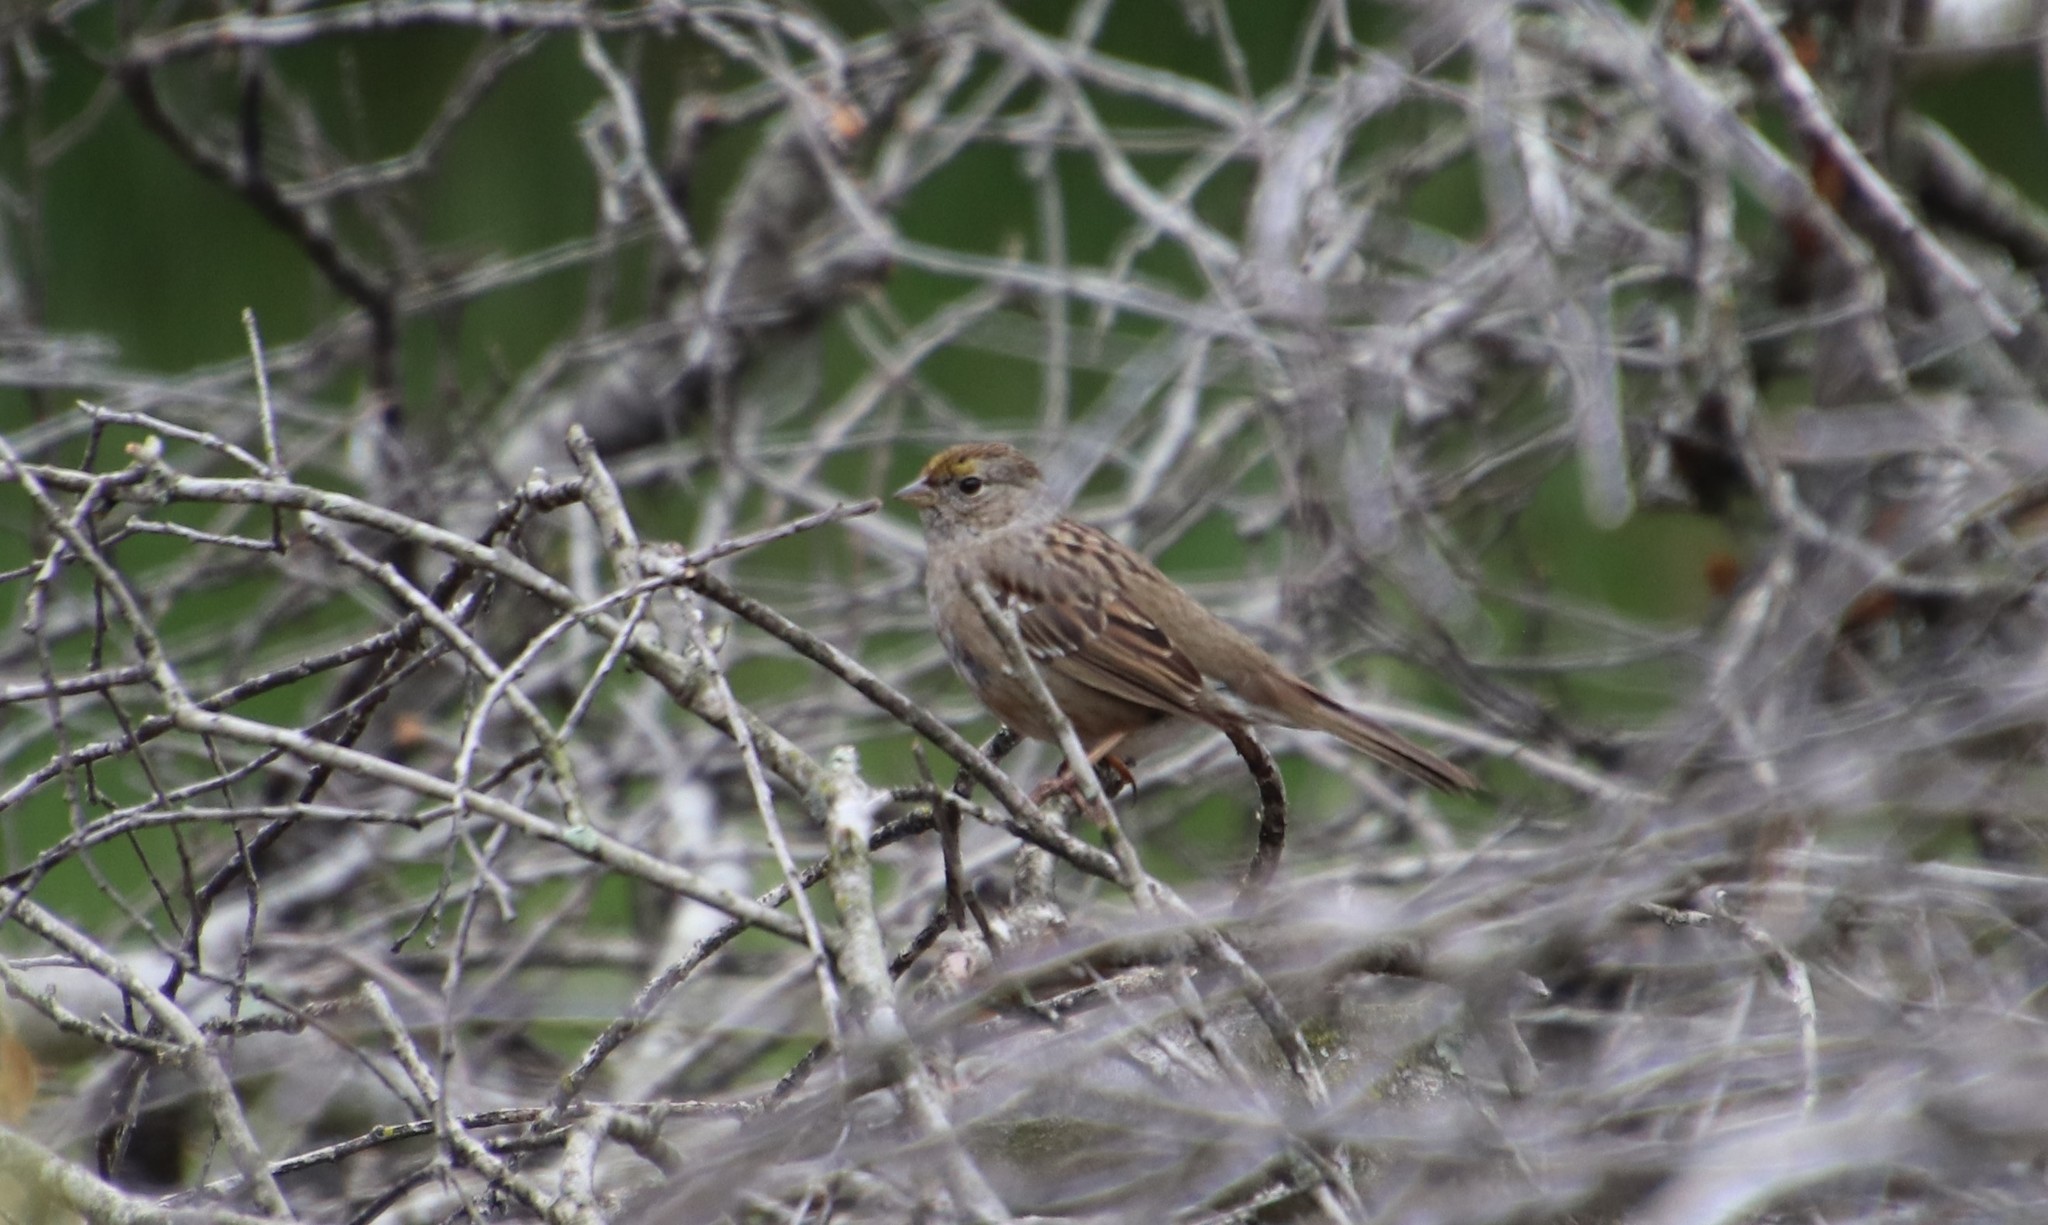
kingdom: Animalia
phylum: Chordata
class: Aves
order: Passeriformes
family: Passerellidae
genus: Zonotrichia
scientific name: Zonotrichia atricapilla
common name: Golden-crowned sparrow
